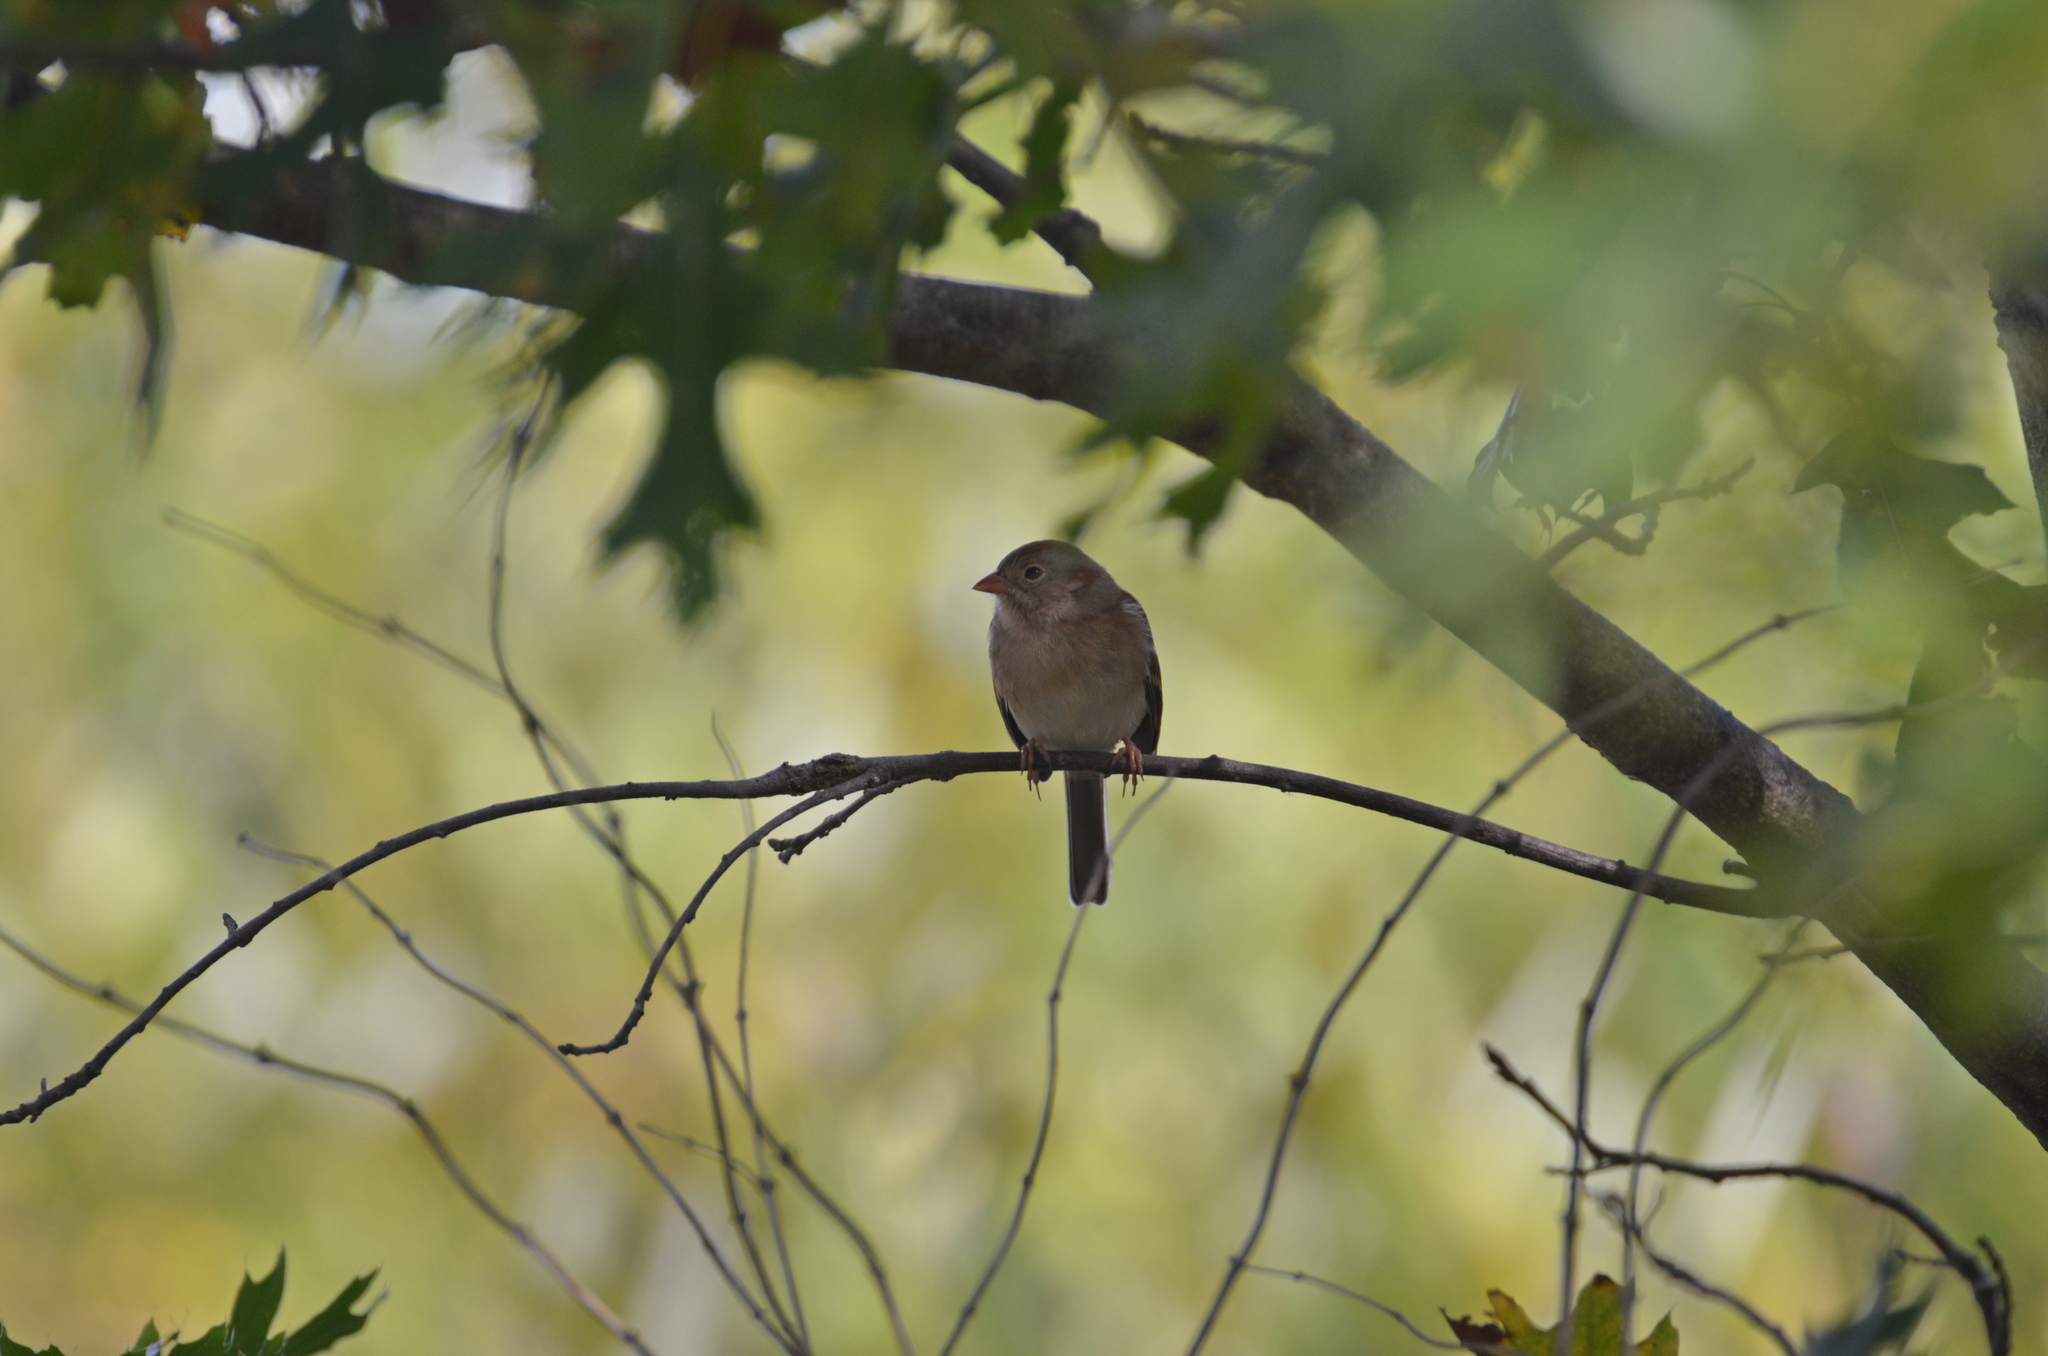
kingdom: Animalia
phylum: Chordata
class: Aves
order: Passeriformes
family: Passerellidae
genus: Spizella
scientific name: Spizella pusilla
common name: Field sparrow
